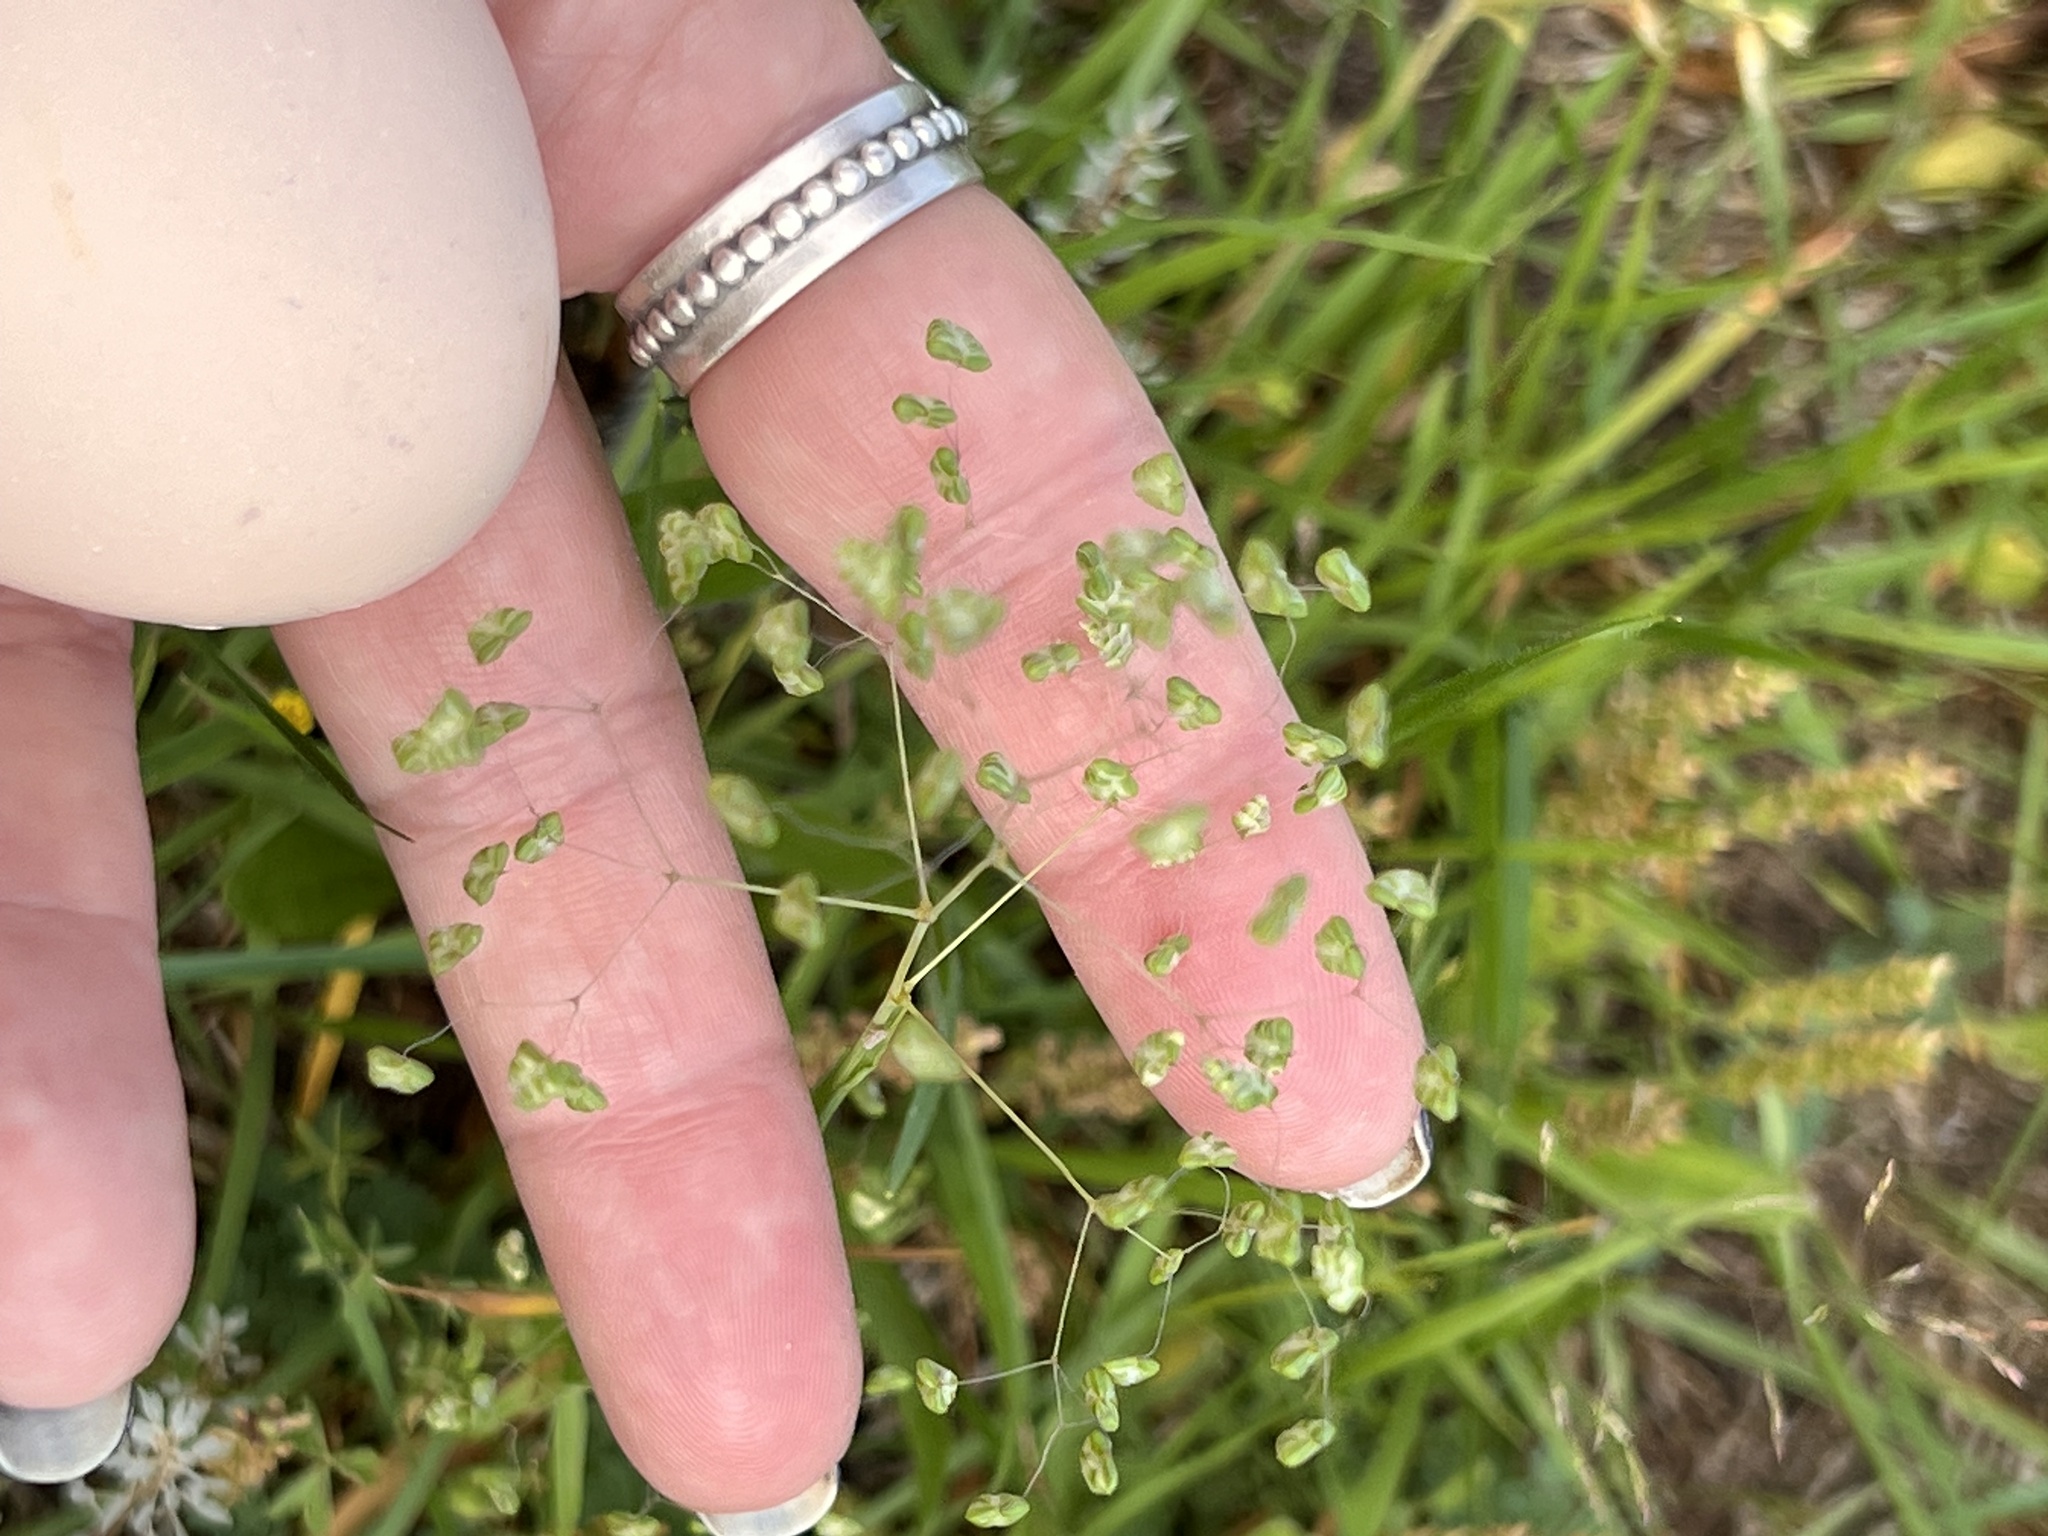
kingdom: Plantae
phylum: Tracheophyta
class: Liliopsida
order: Poales
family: Poaceae
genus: Briza
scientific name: Briza minor
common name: Lesser quaking-grass
